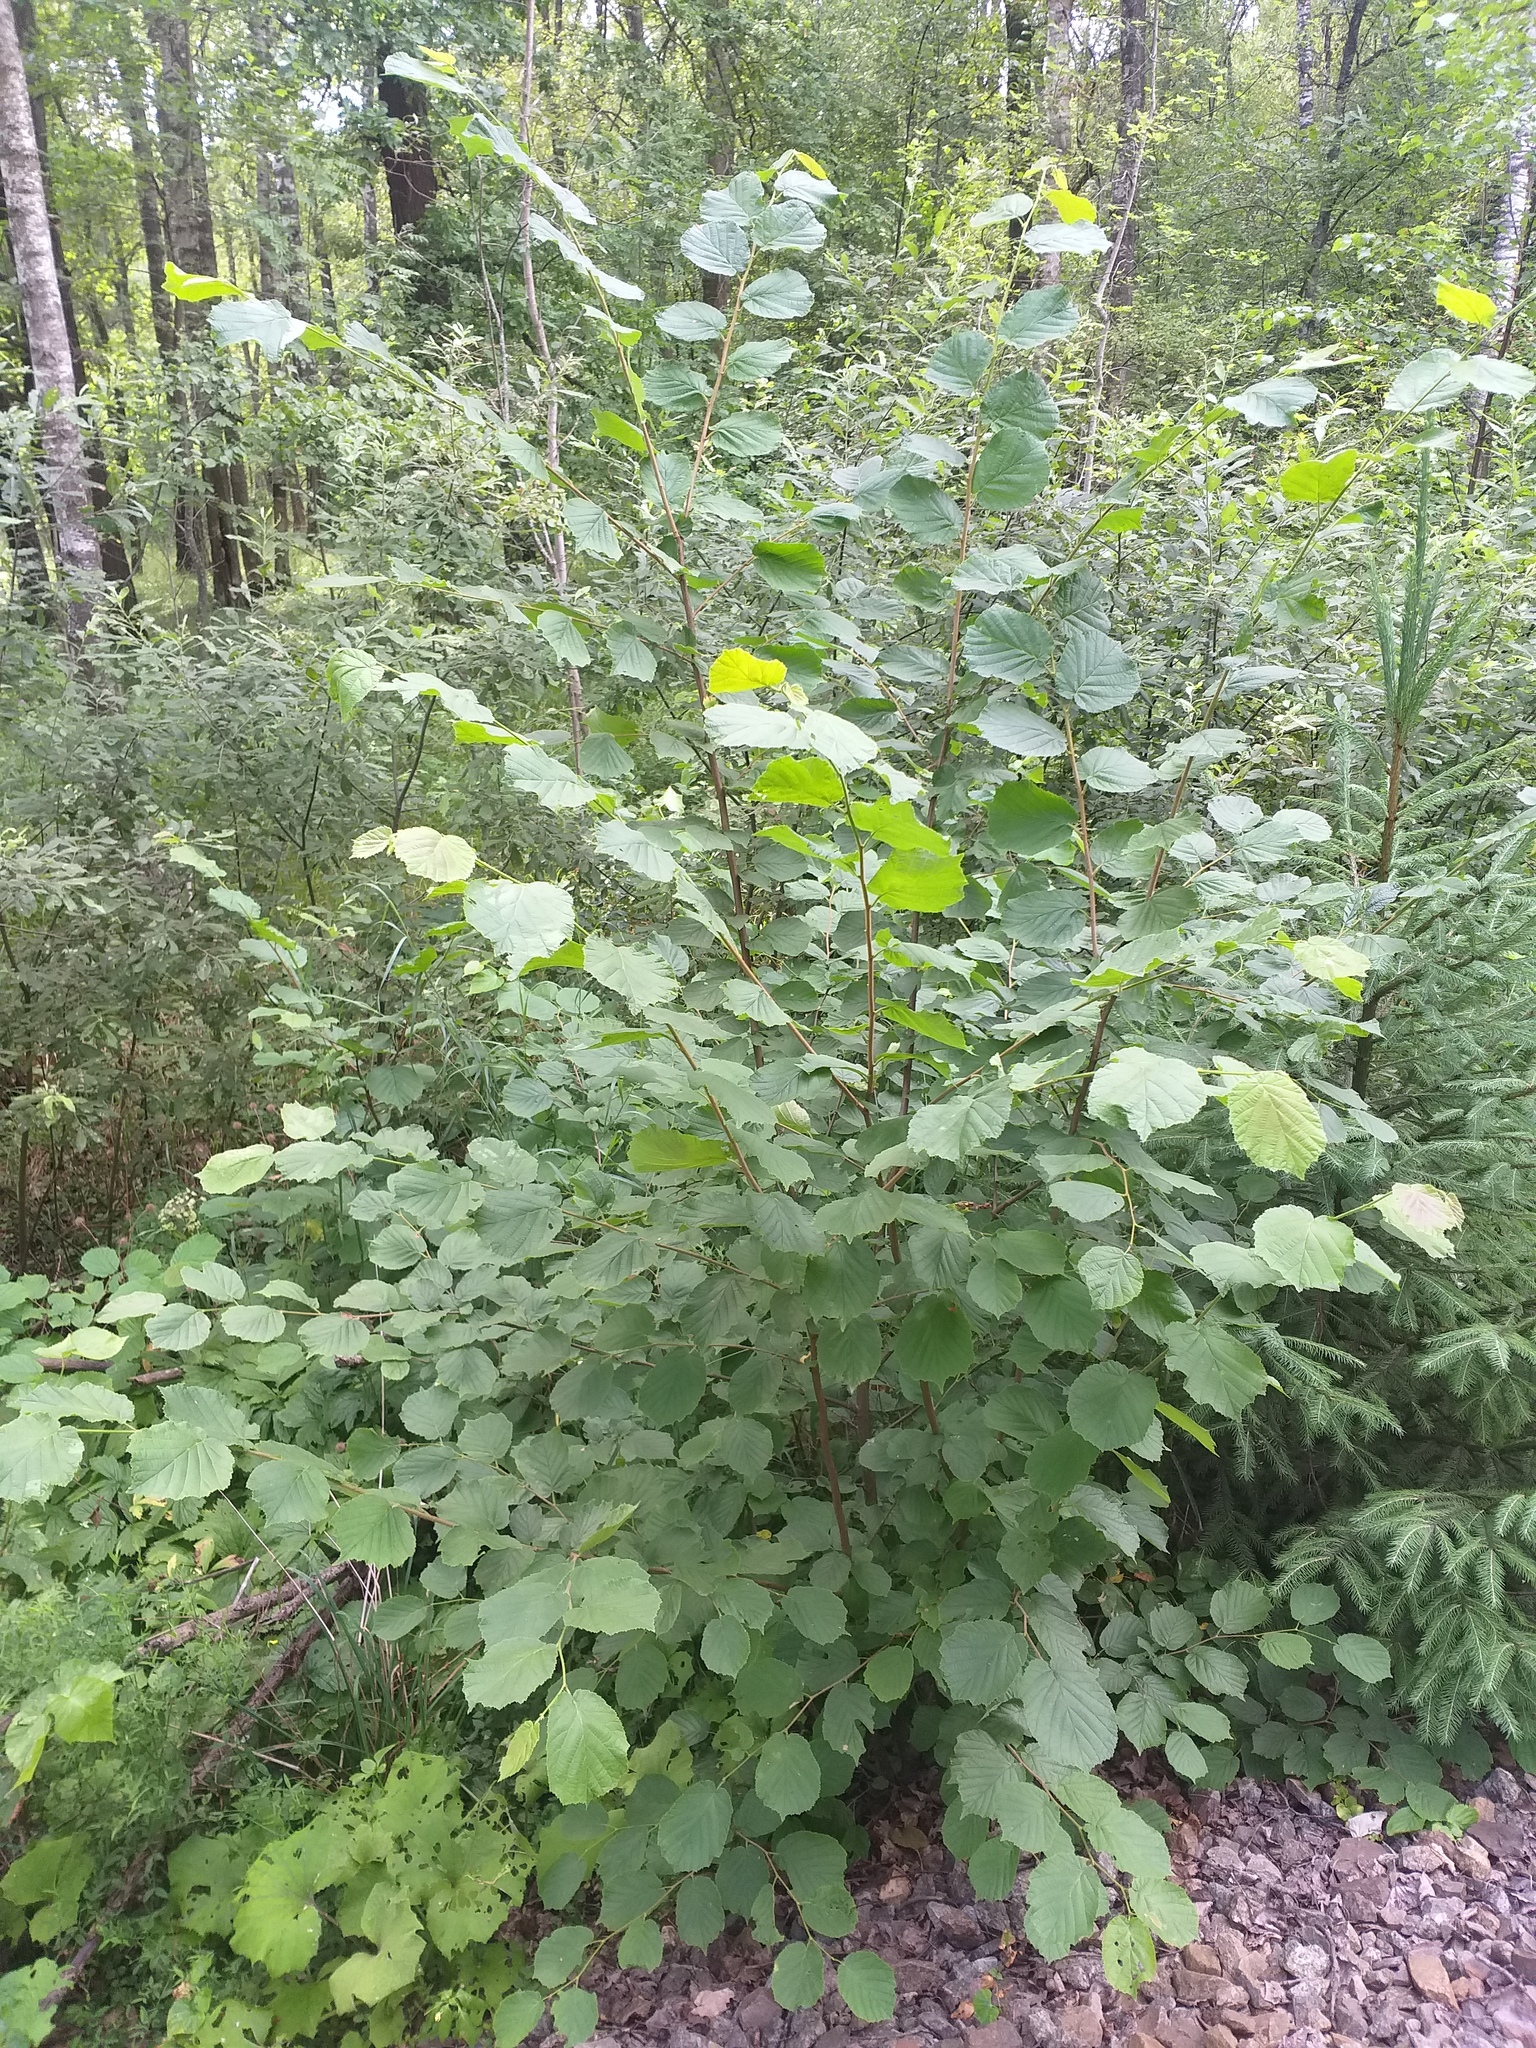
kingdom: Plantae
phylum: Tracheophyta
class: Magnoliopsida
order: Fagales
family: Betulaceae
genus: Corylus
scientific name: Corylus avellana
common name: European hazel
